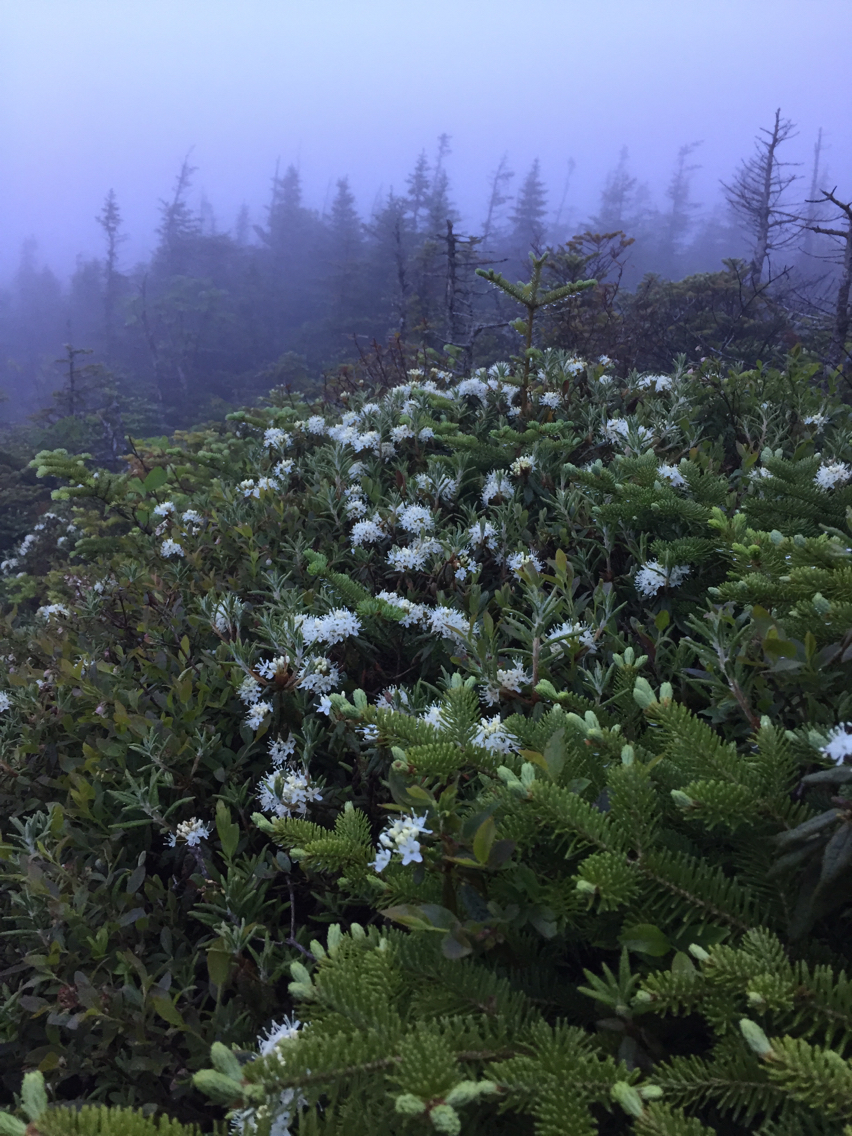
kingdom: Plantae
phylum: Tracheophyta
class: Pinopsida
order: Pinales
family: Pinaceae
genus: Abies
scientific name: Abies balsamea
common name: Balsam fir
